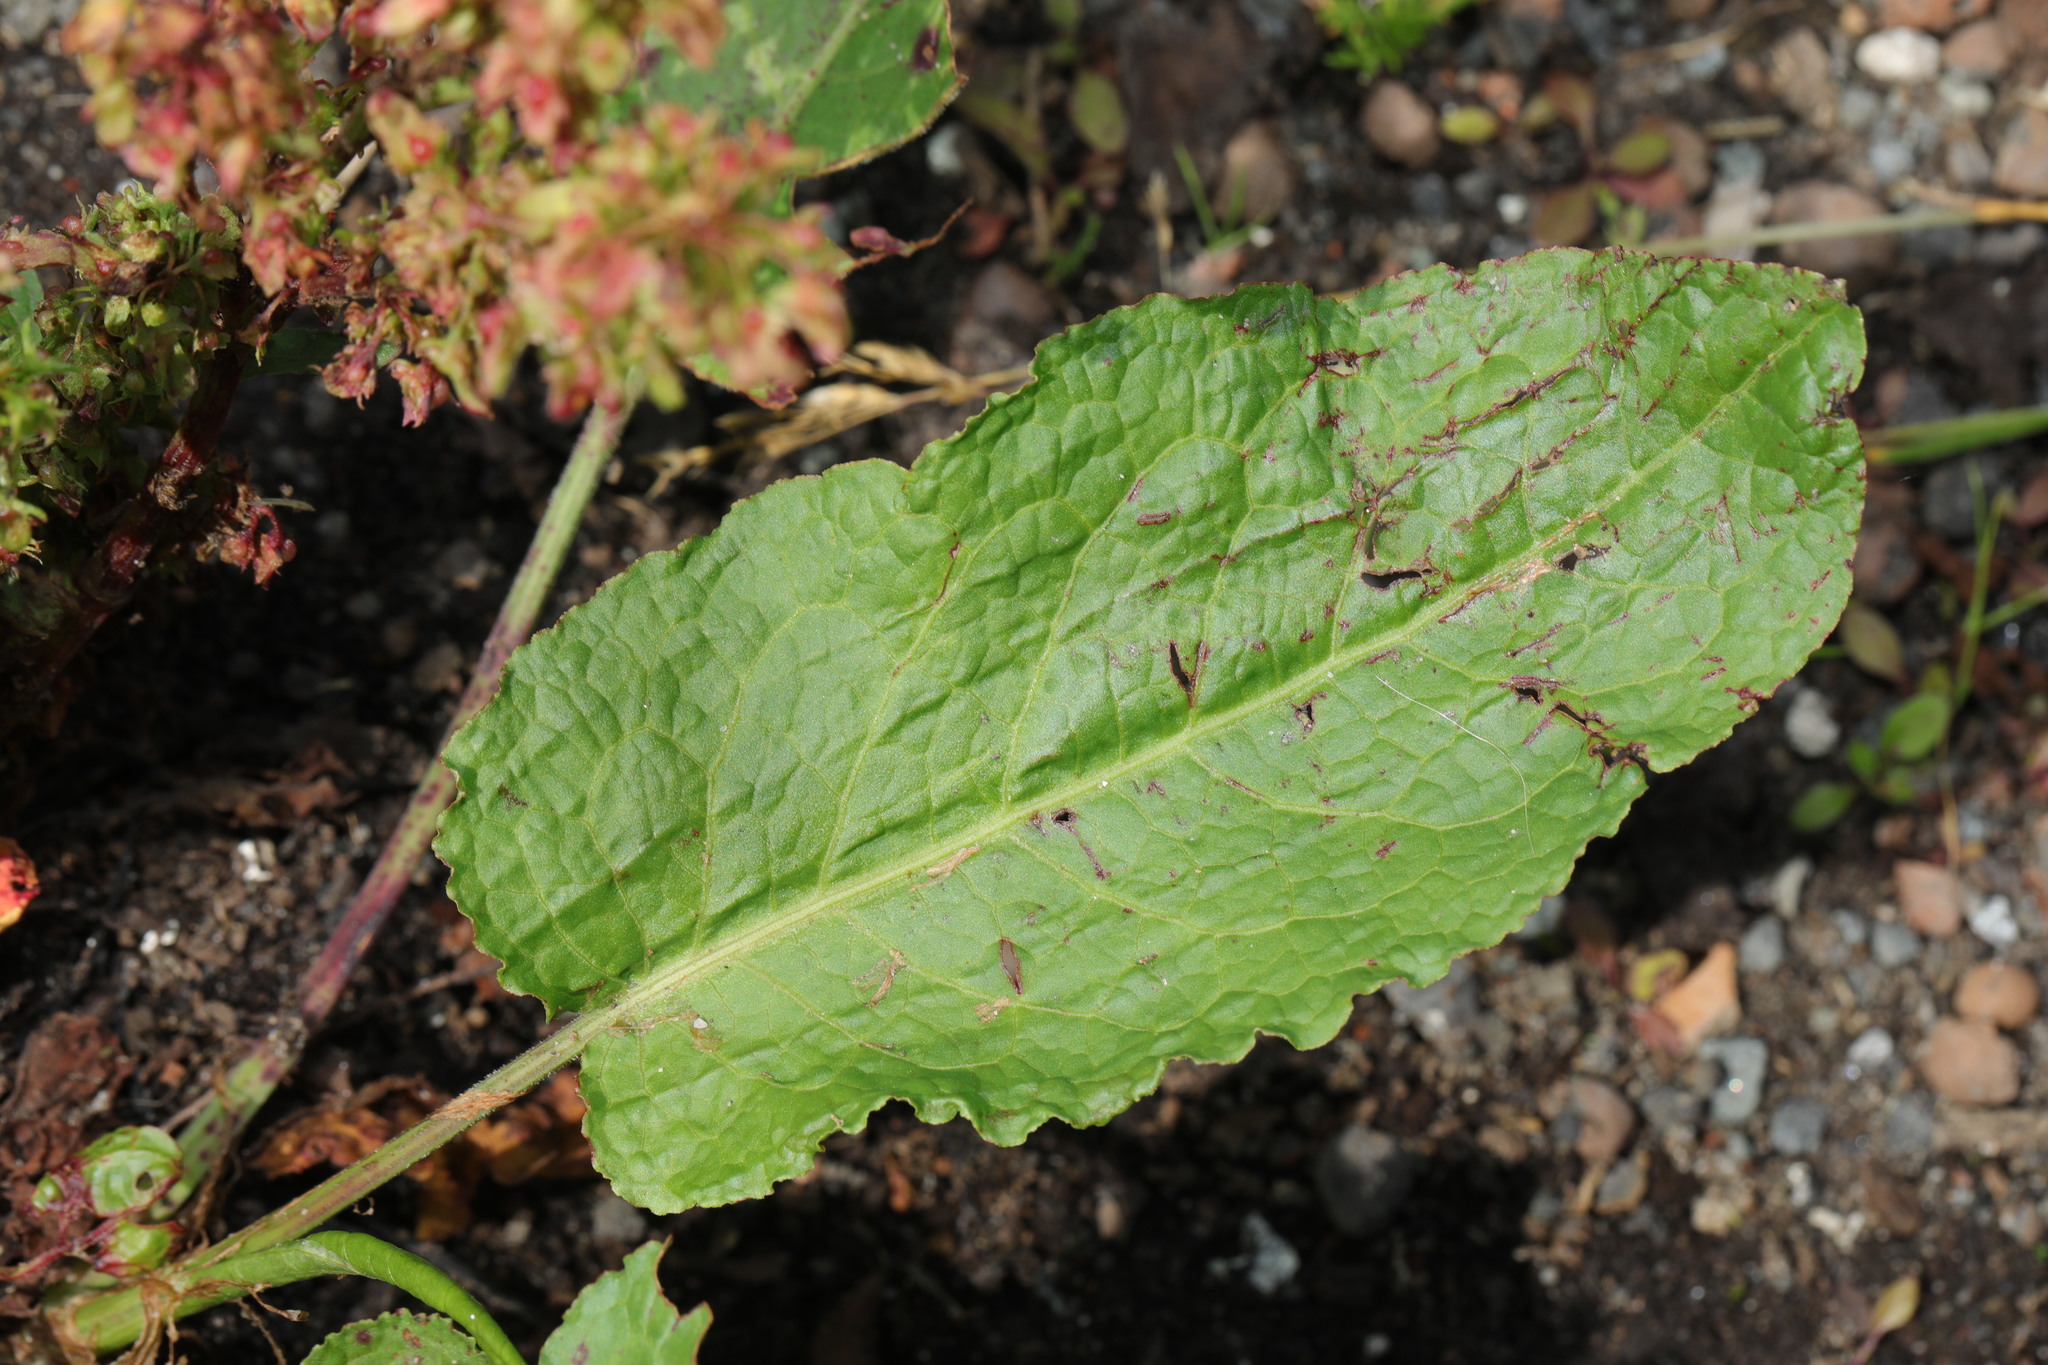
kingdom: Plantae
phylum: Tracheophyta
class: Magnoliopsida
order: Caryophyllales
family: Polygonaceae
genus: Rumex
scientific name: Rumex obtusifolius
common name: Bitter dock
